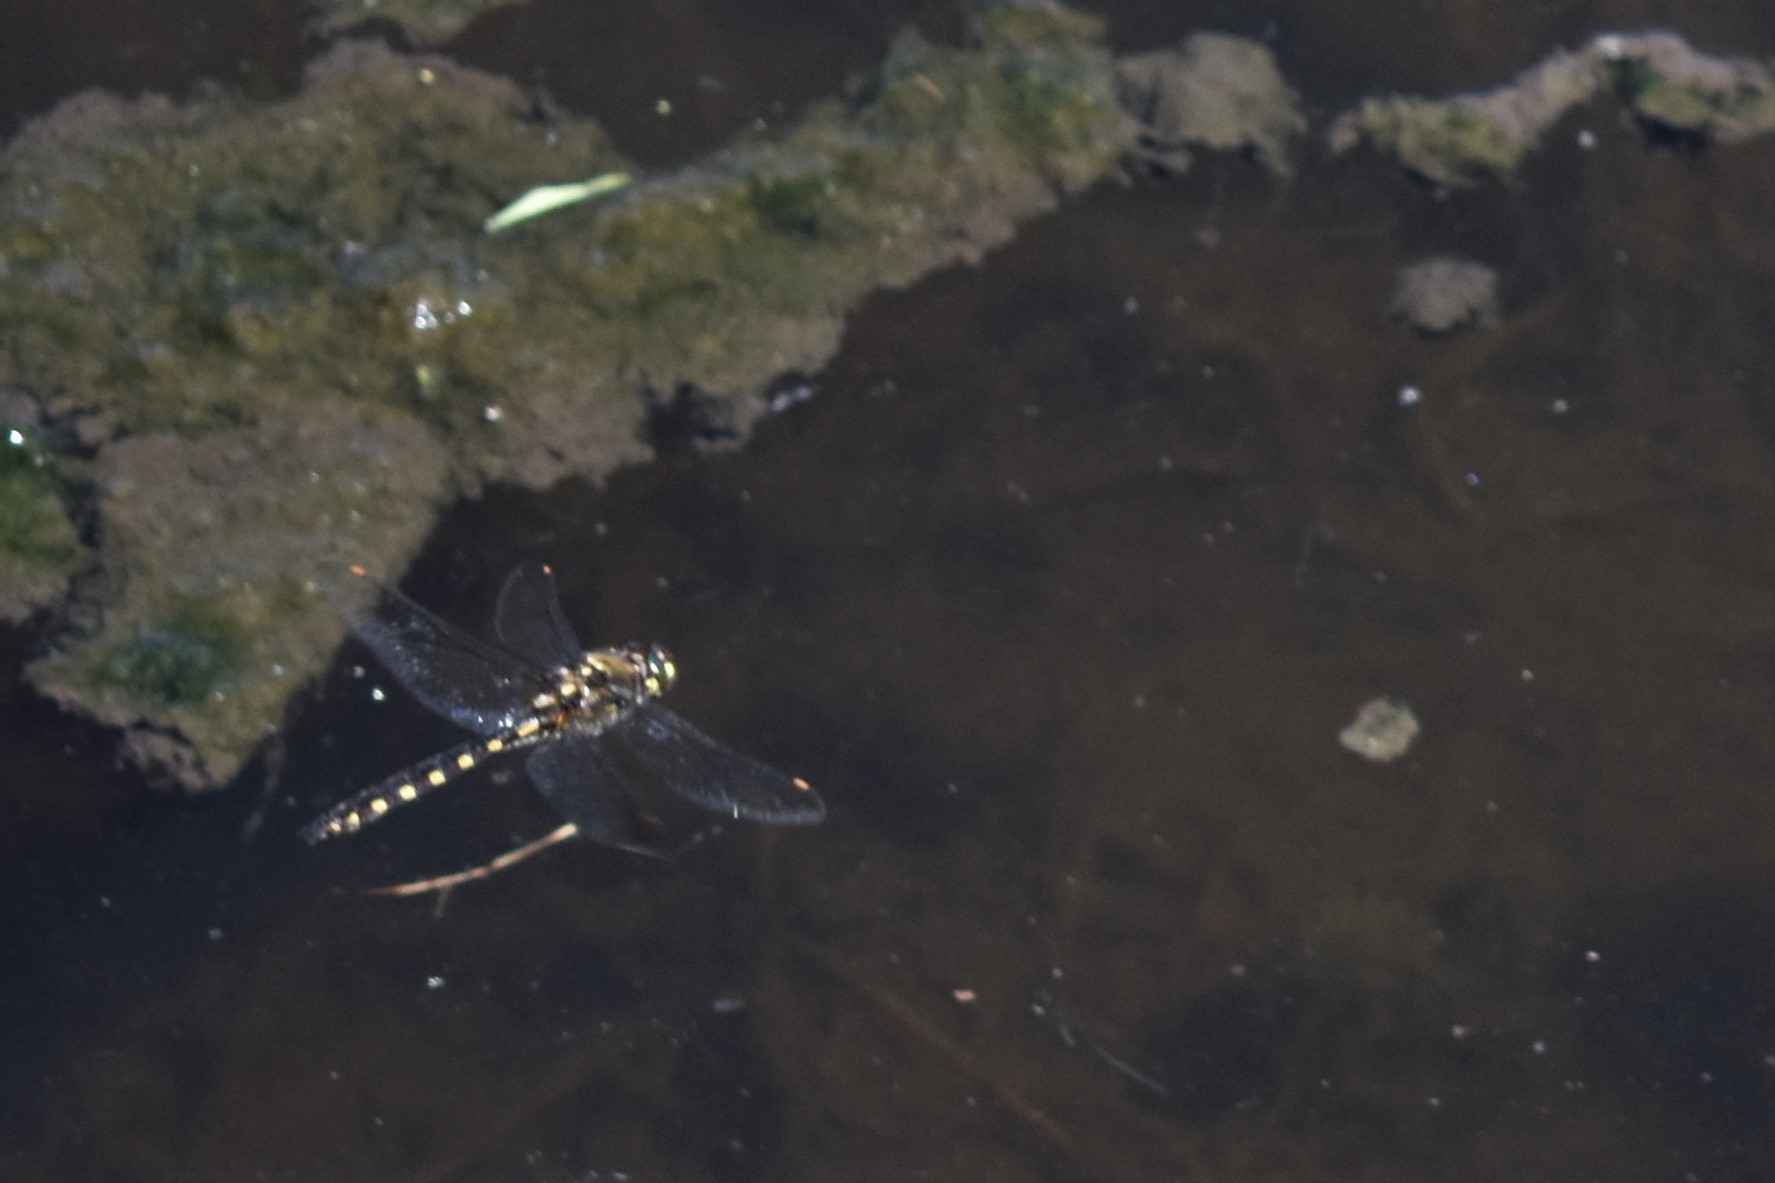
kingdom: Animalia
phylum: Arthropoda
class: Insecta
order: Odonata
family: Corduliidae
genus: Procordulia
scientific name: Procordulia grayi
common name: Yellow spotted dragonfly
